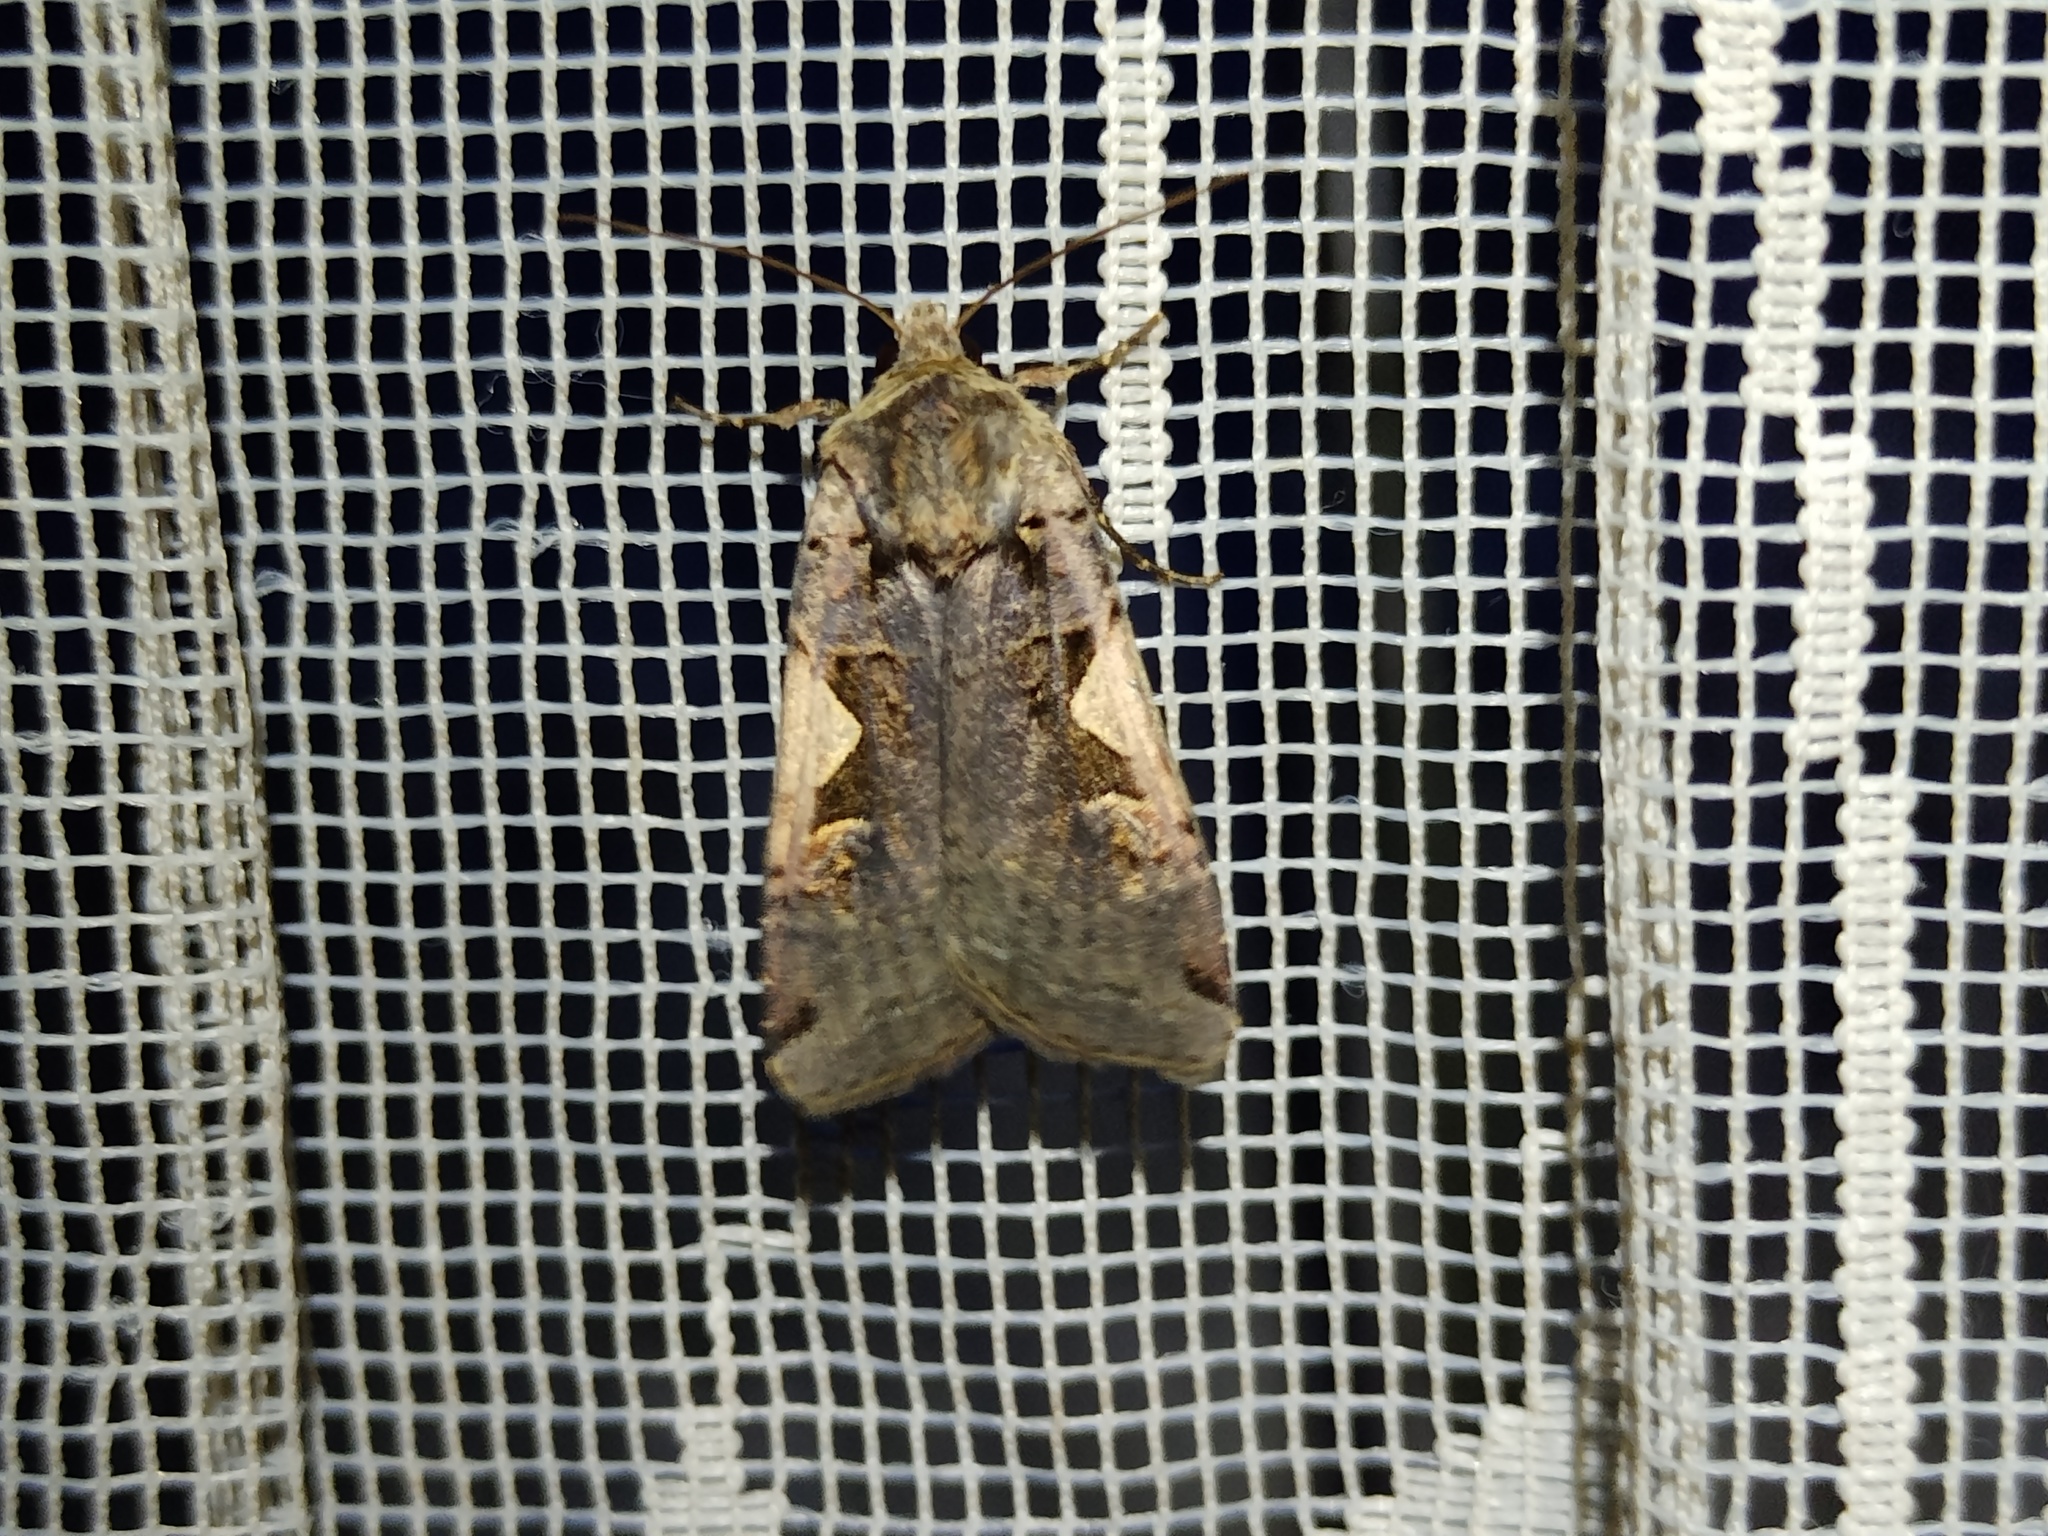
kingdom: Animalia
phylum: Arthropoda
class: Insecta
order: Lepidoptera
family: Noctuidae
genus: Xestia
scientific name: Xestia c-nigrum
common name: Setaceous hebrew character
